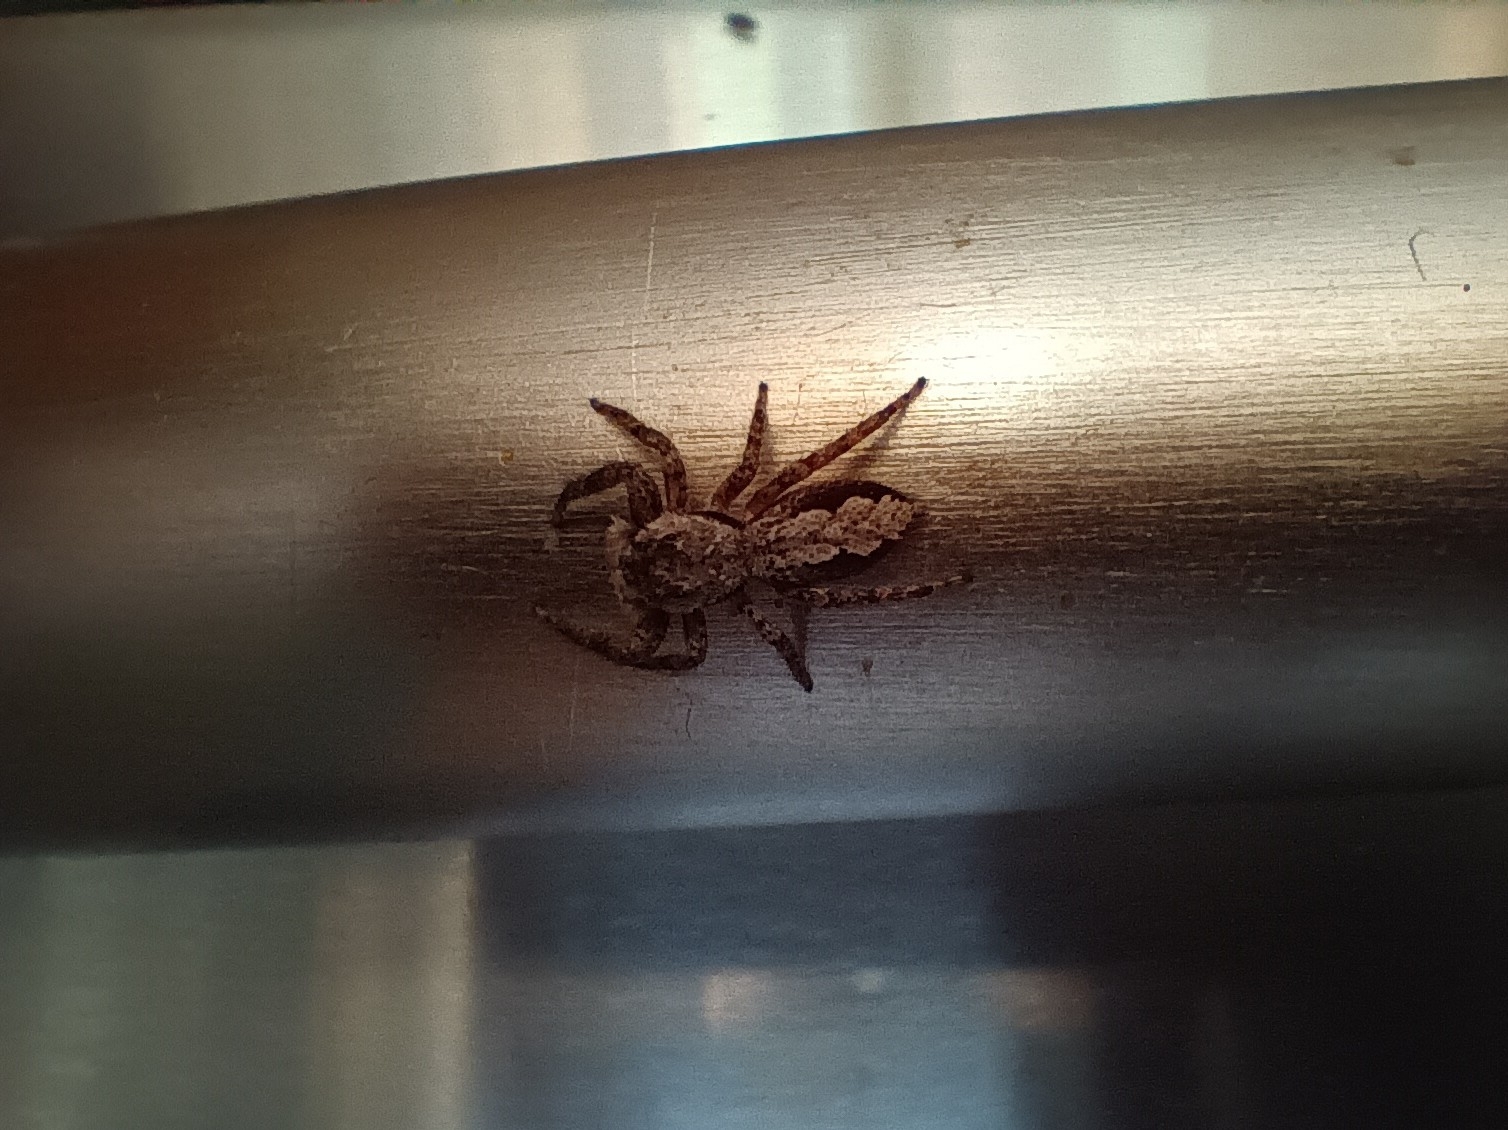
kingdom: Animalia
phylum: Arthropoda
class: Arachnida
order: Araneae
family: Salticidae
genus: Platycryptus
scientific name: Platycryptus undatus
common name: Tan jumping spider
